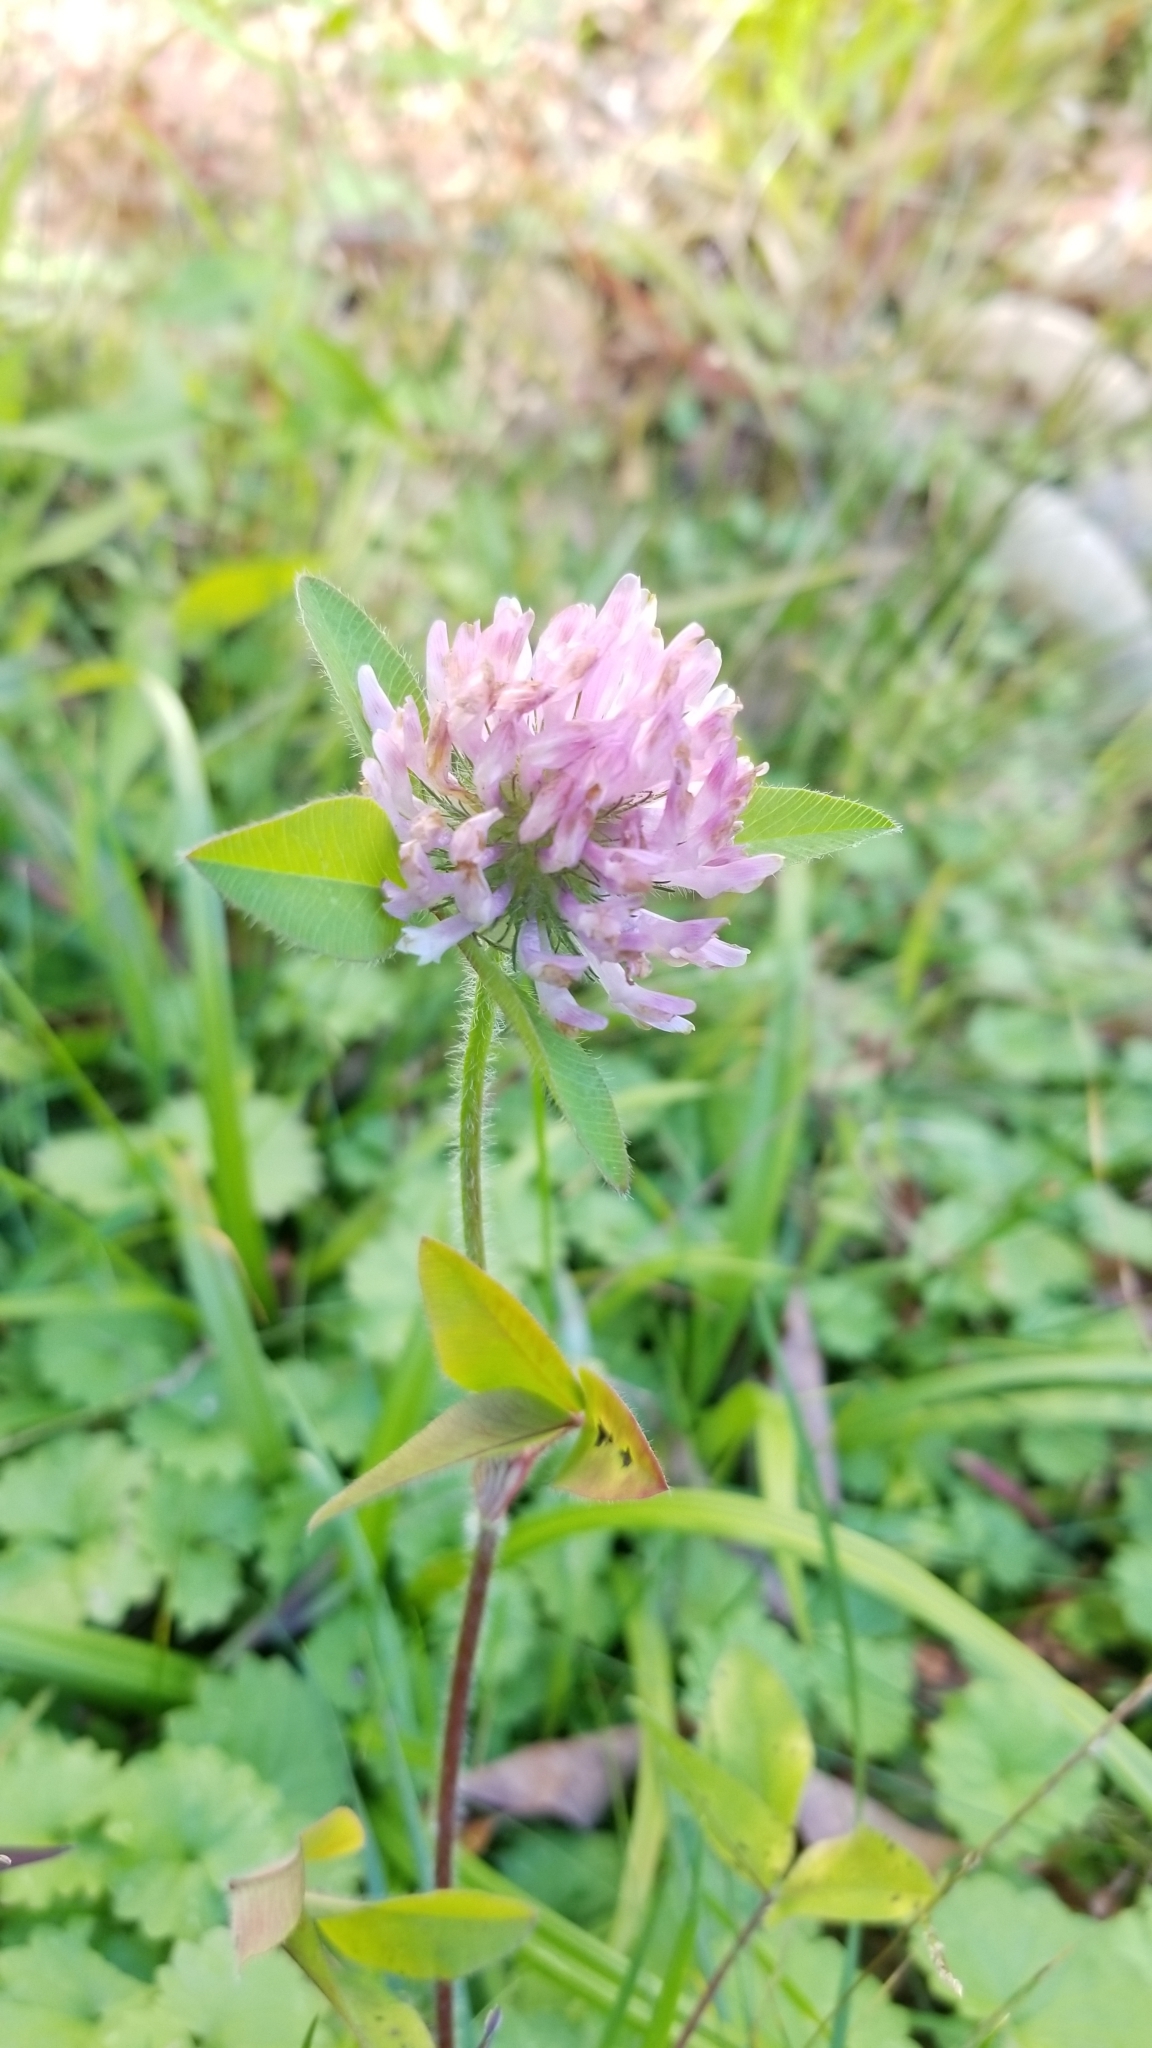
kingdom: Plantae
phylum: Tracheophyta
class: Magnoliopsida
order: Fabales
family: Fabaceae
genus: Trifolium
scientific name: Trifolium pratense
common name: Red clover
